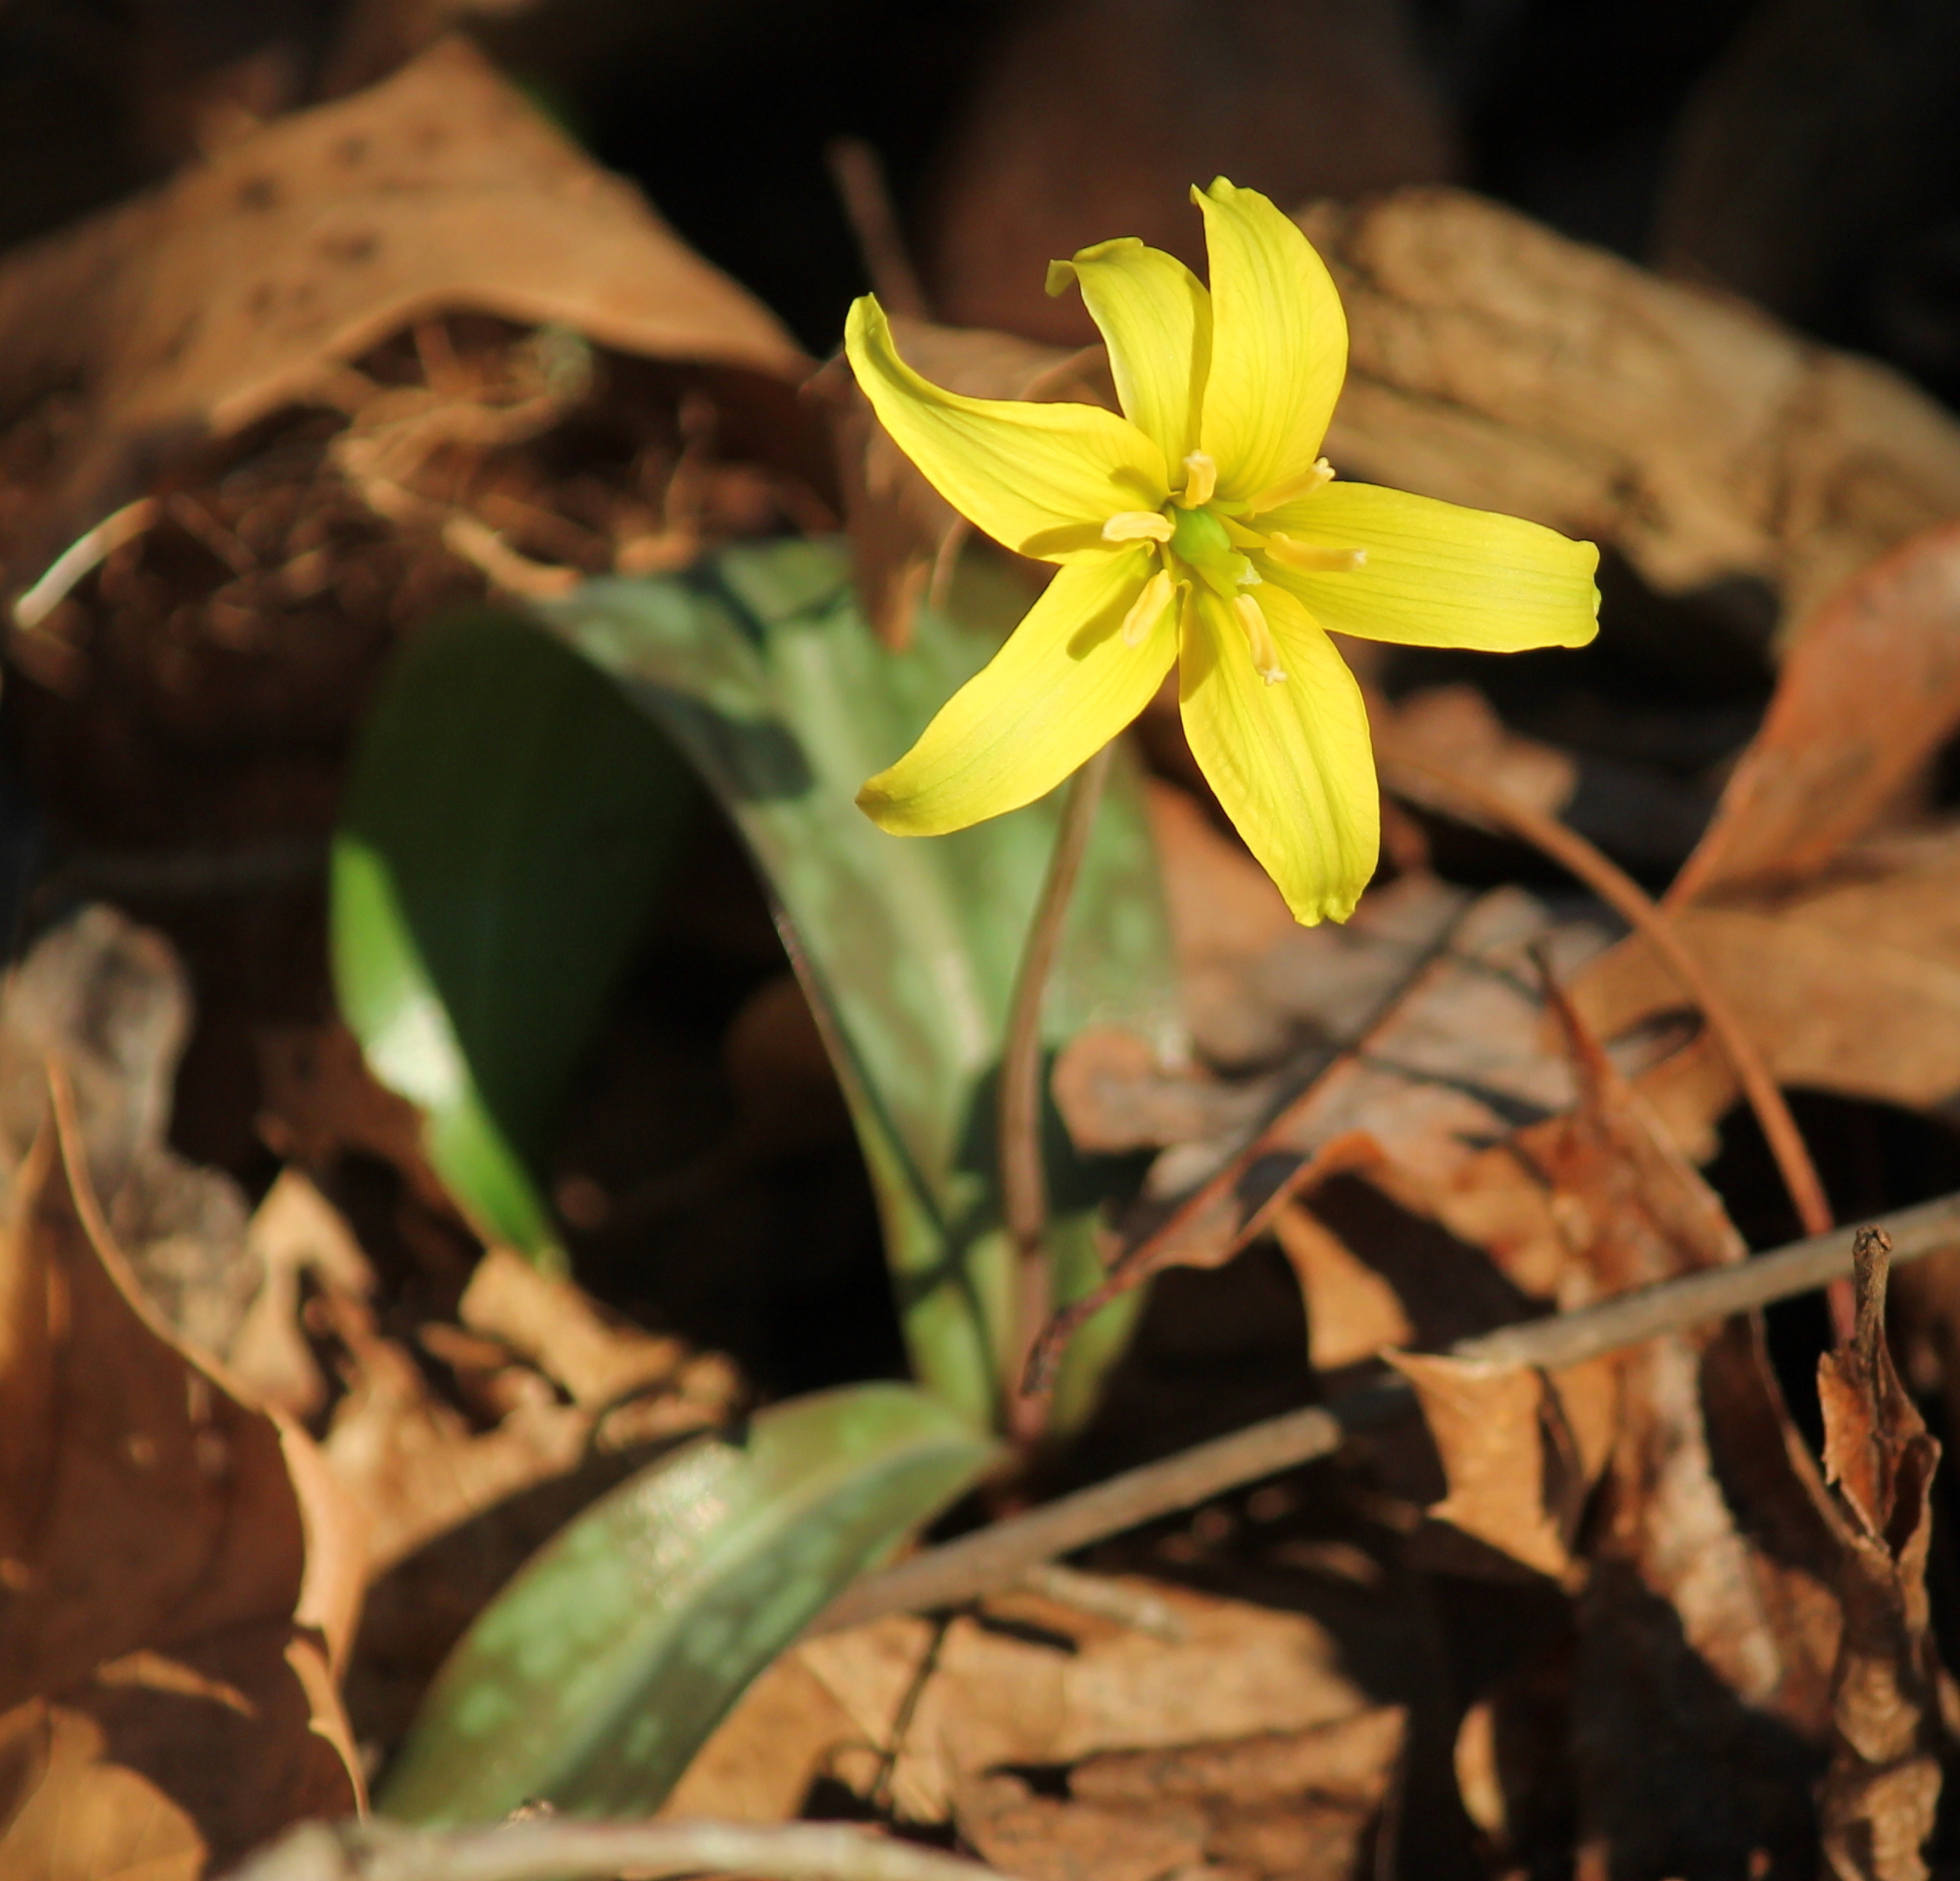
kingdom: Plantae
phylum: Tracheophyta
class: Liliopsida
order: Liliales
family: Liliaceae
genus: Erythronium
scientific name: Erythronium rostratum
